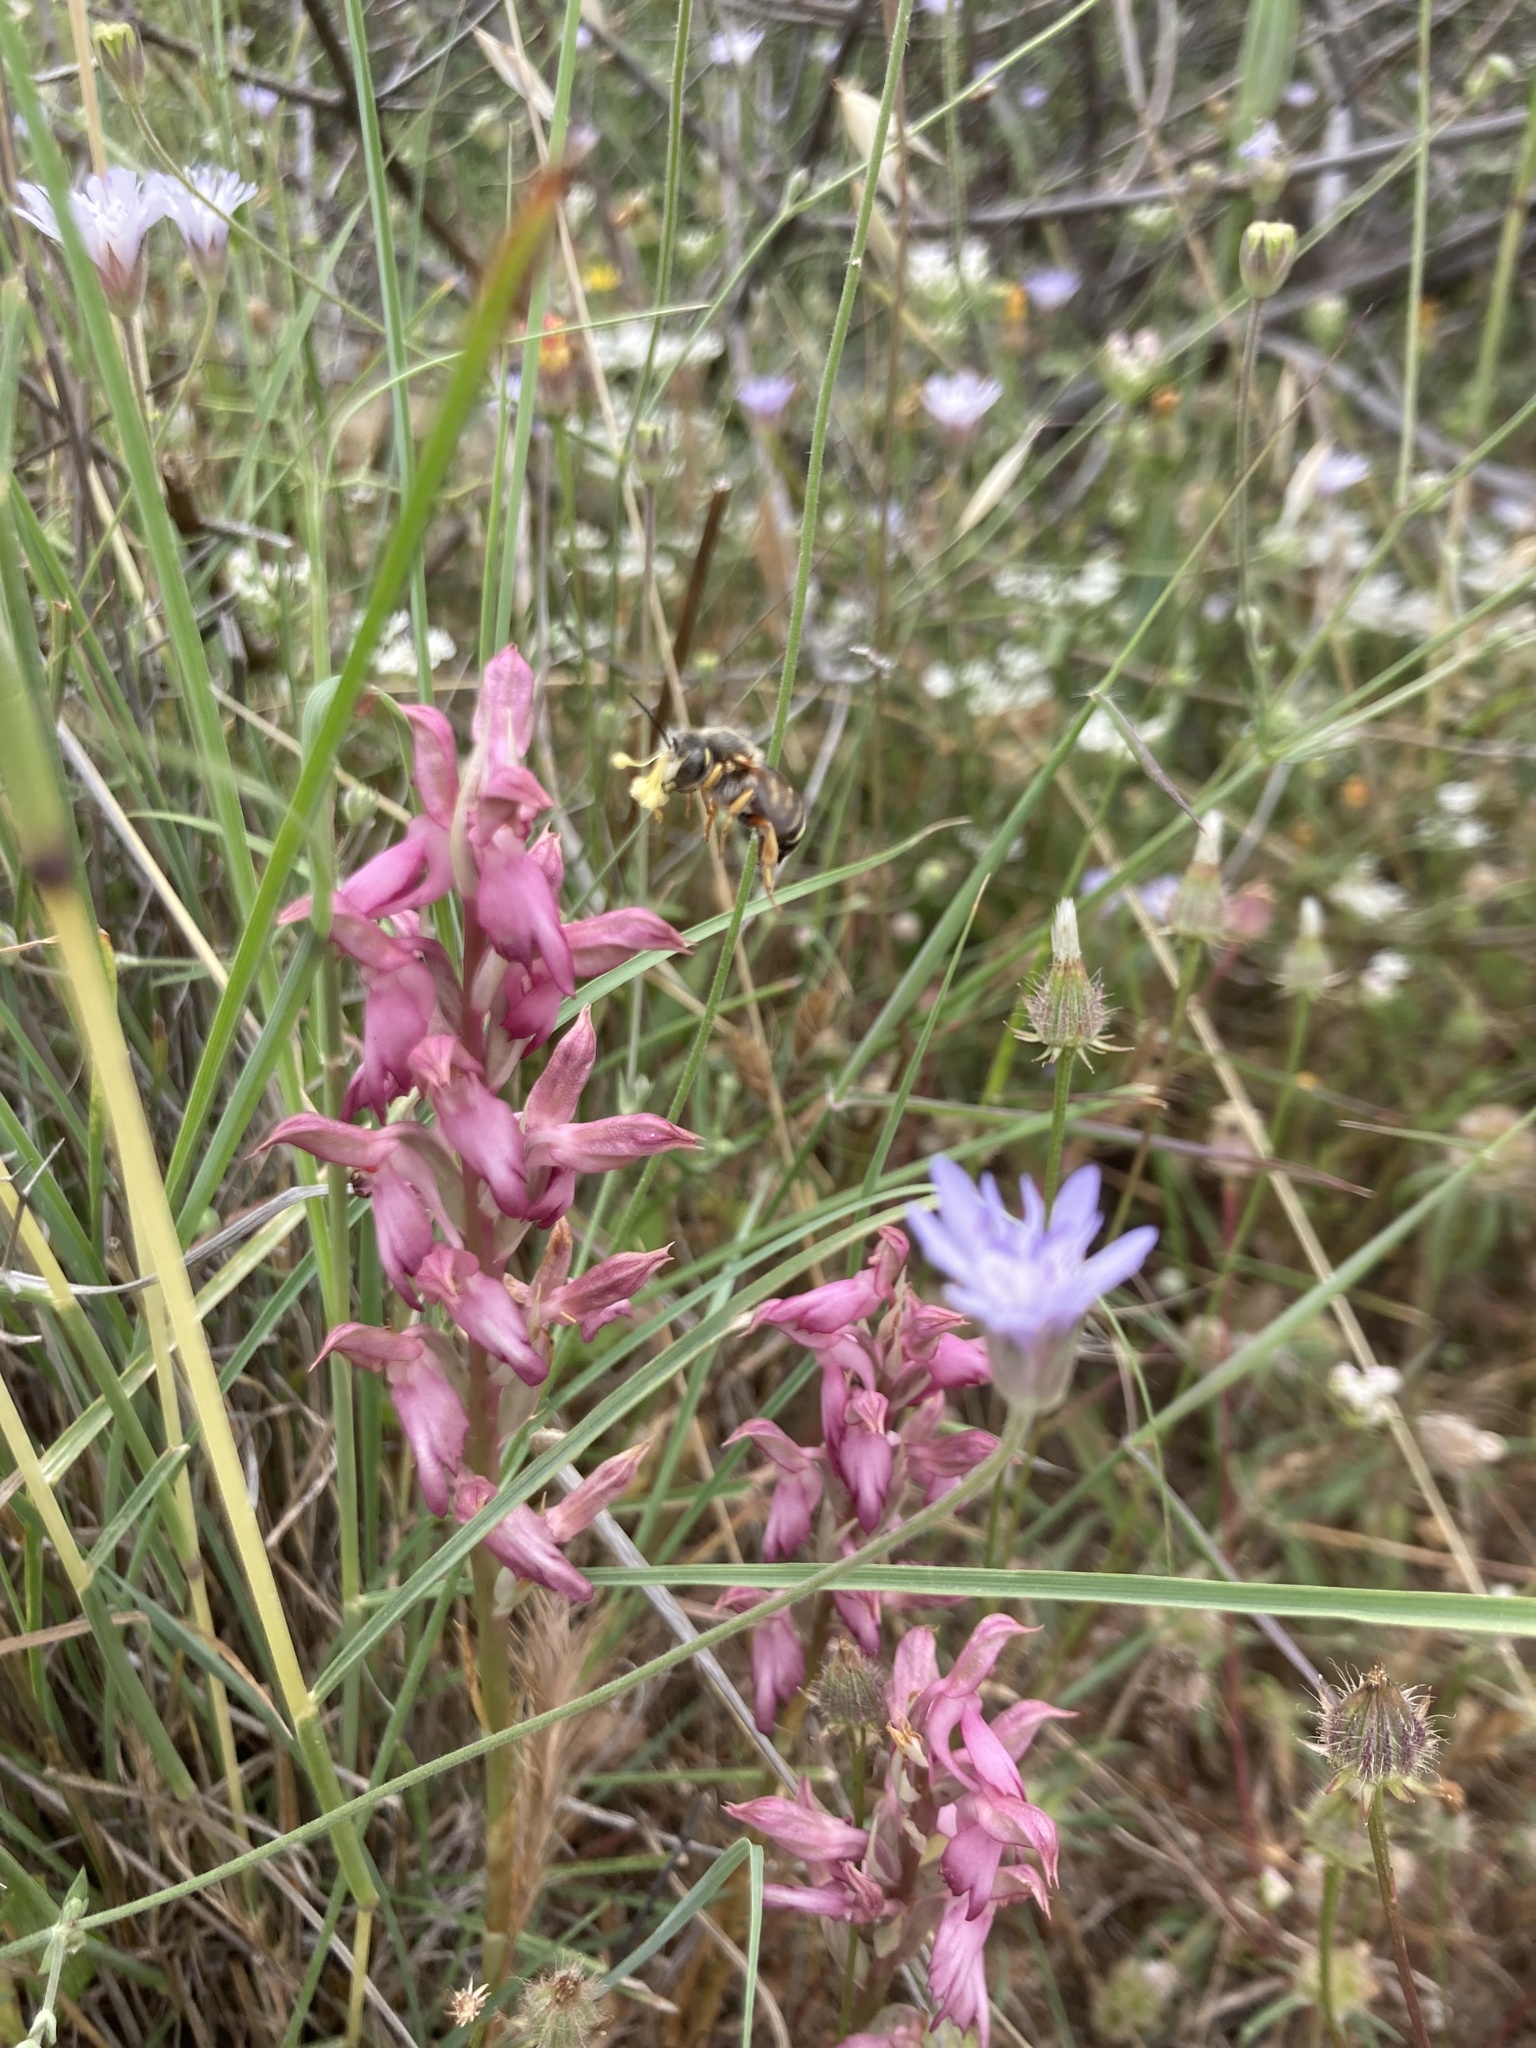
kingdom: Plantae
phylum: Tracheophyta
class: Liliopsida
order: Asparagales
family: Orchidaceae
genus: Anacamptis
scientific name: Anacamptis sancta
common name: Holy orchid
